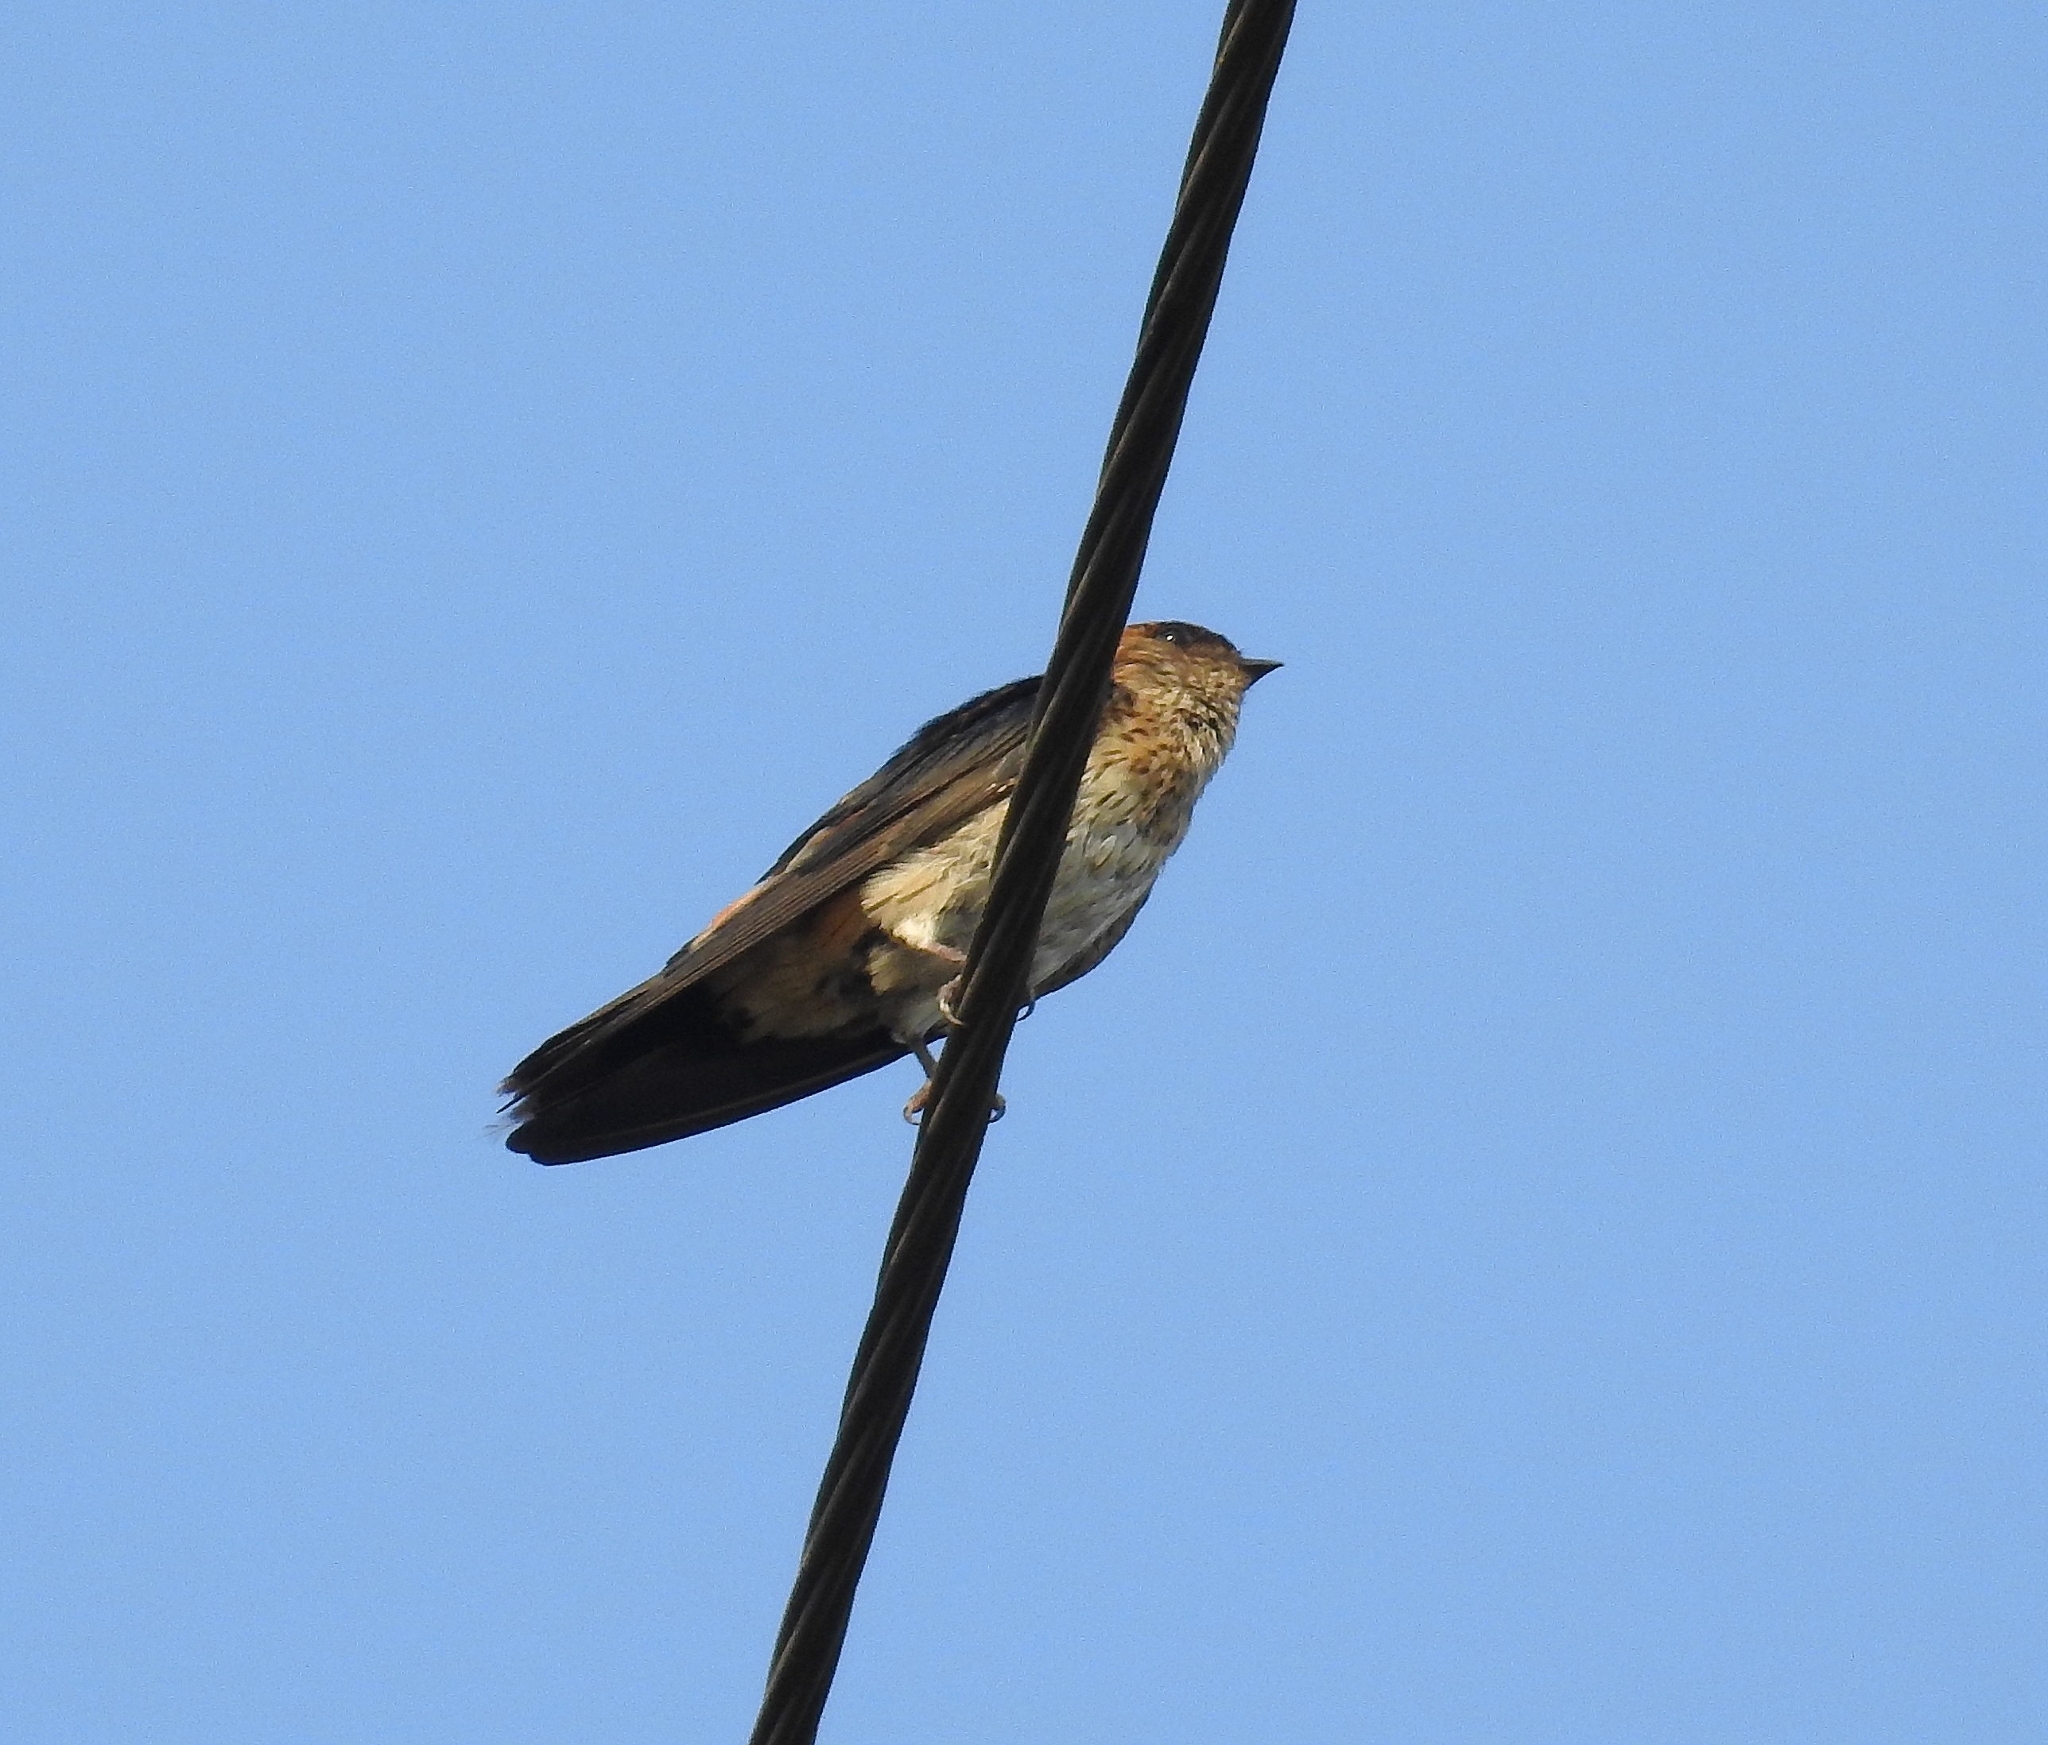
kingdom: Animalia
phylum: Chordata
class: Aves
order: Passeriformes
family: Hirundinidae
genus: Petrochelidon
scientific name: Petrochelidon fluvicola
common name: Streak-throated swallow
